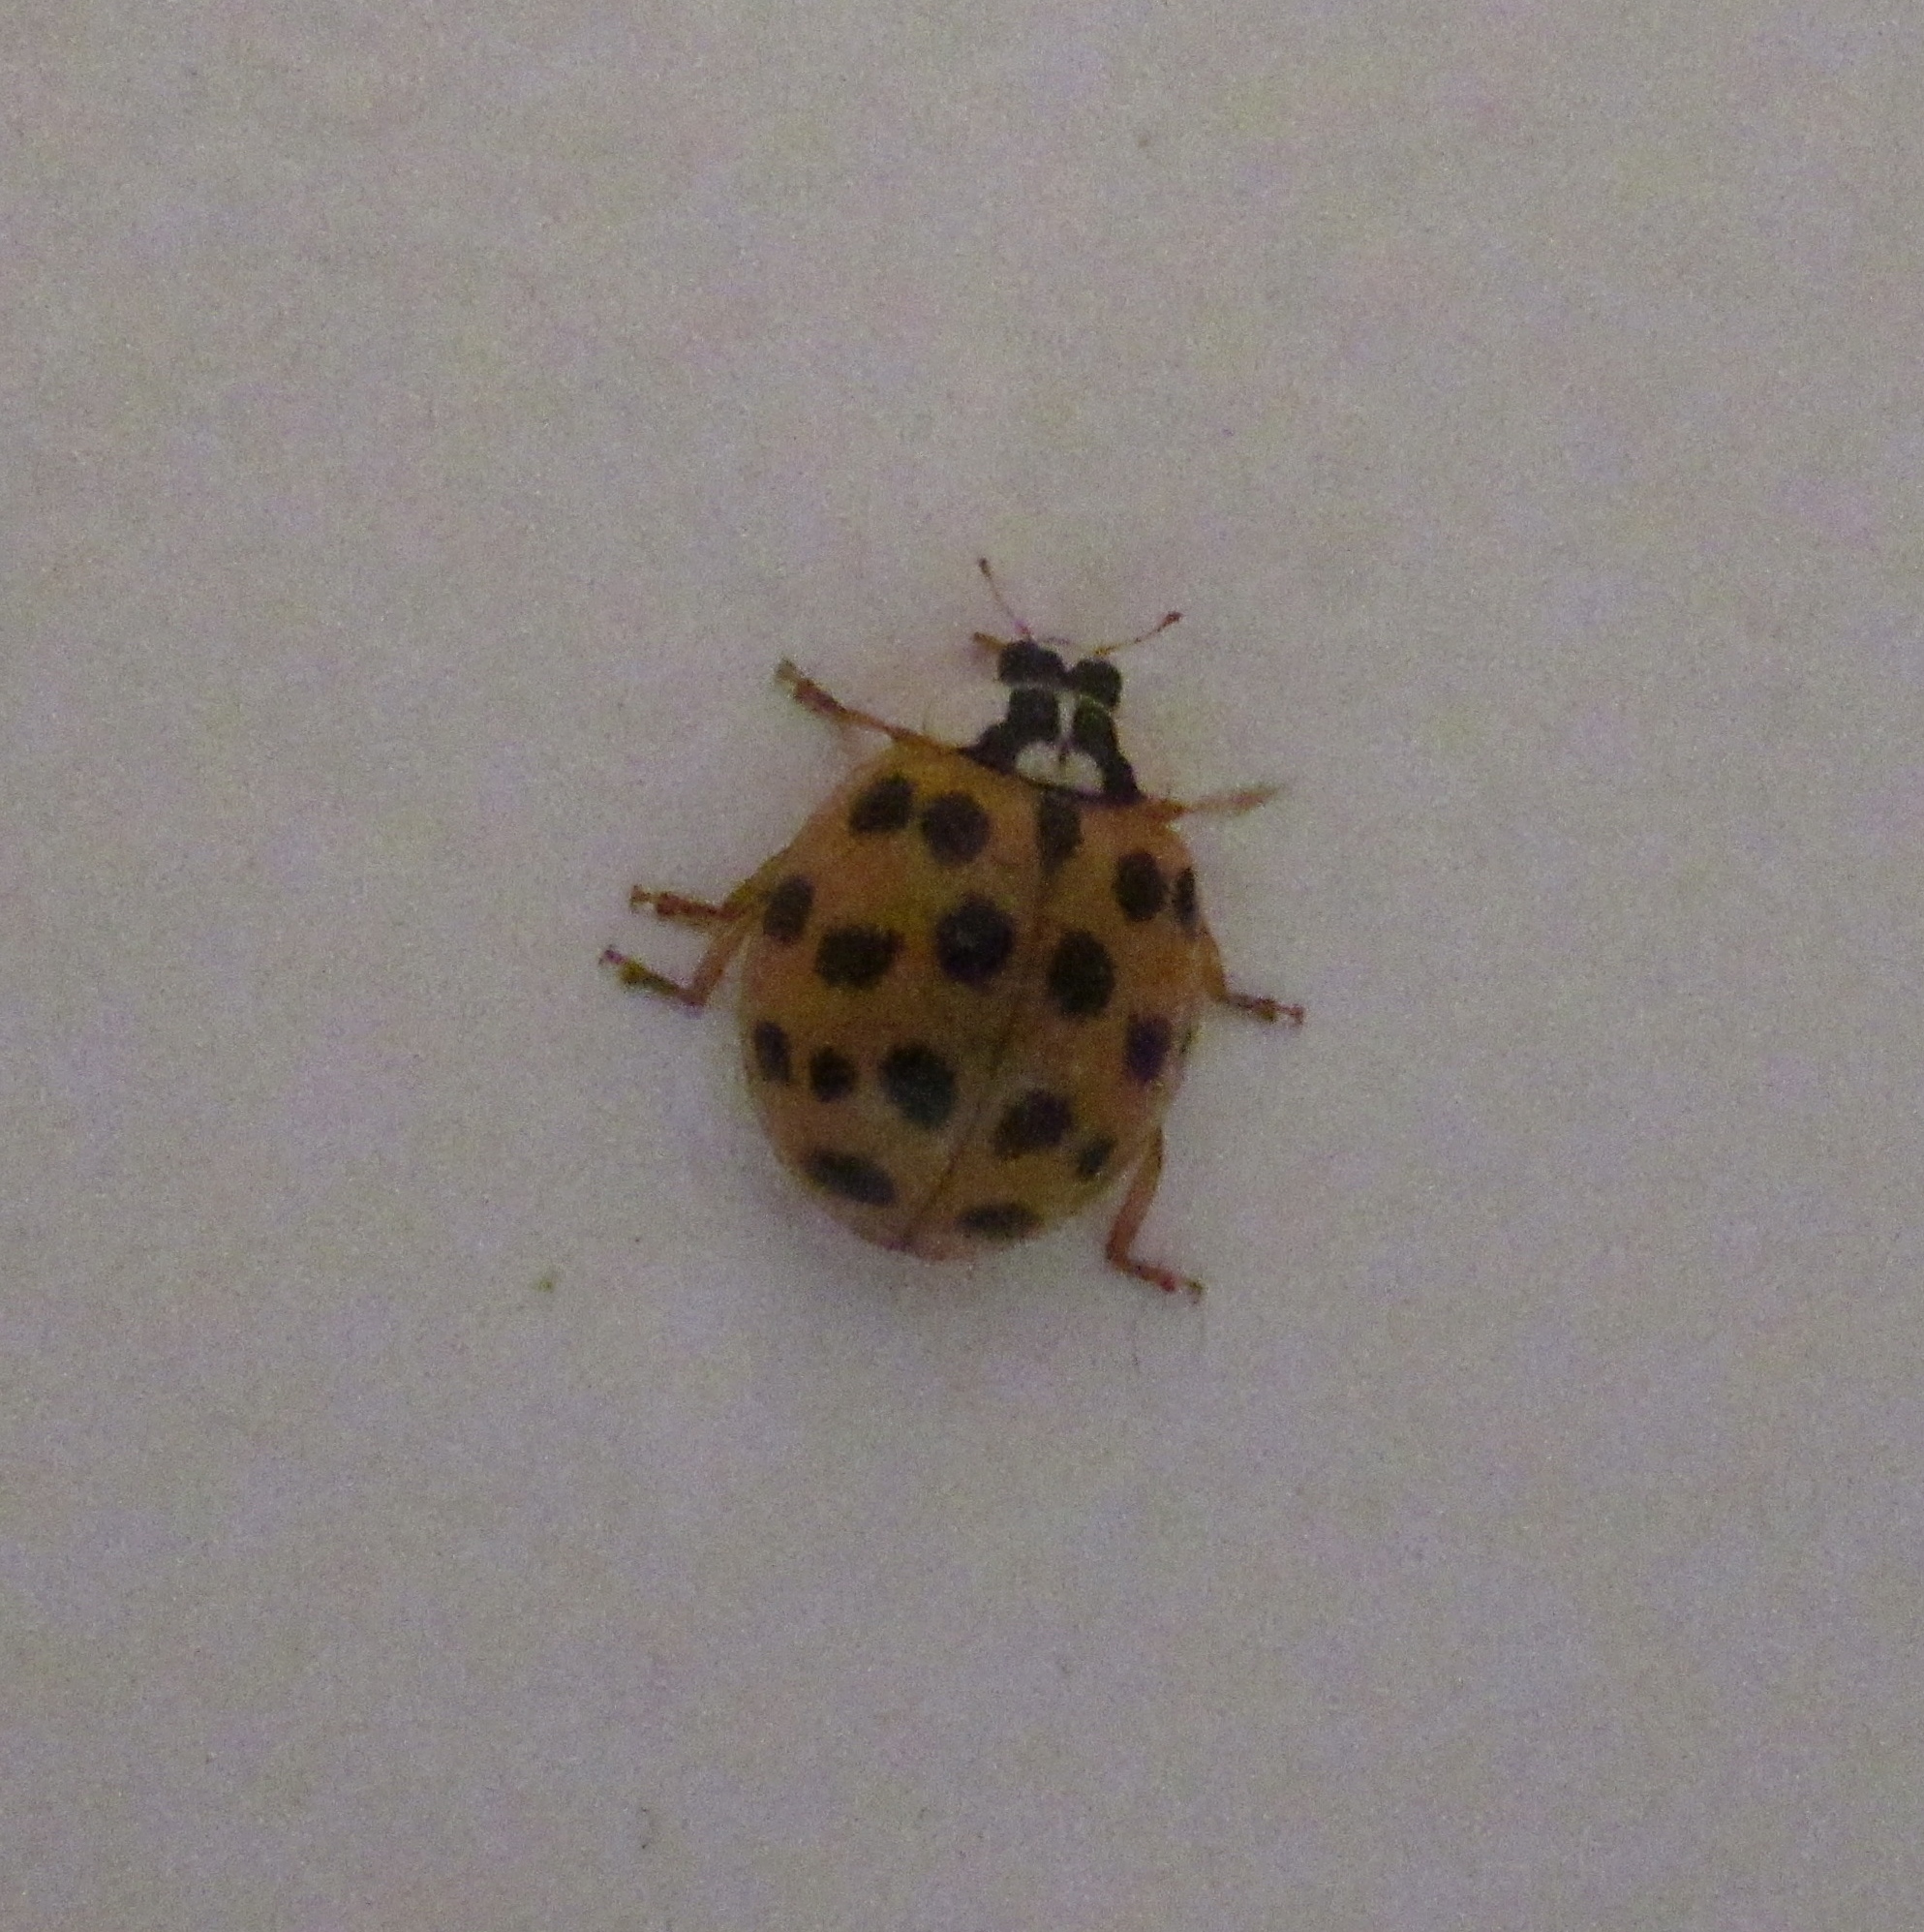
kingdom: Animalia
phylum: Arthropoda
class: Insecta
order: Coleoptera
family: Coccinellidae
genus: Harmonia
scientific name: Harmonia axyridis
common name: Harlequin ladybird
